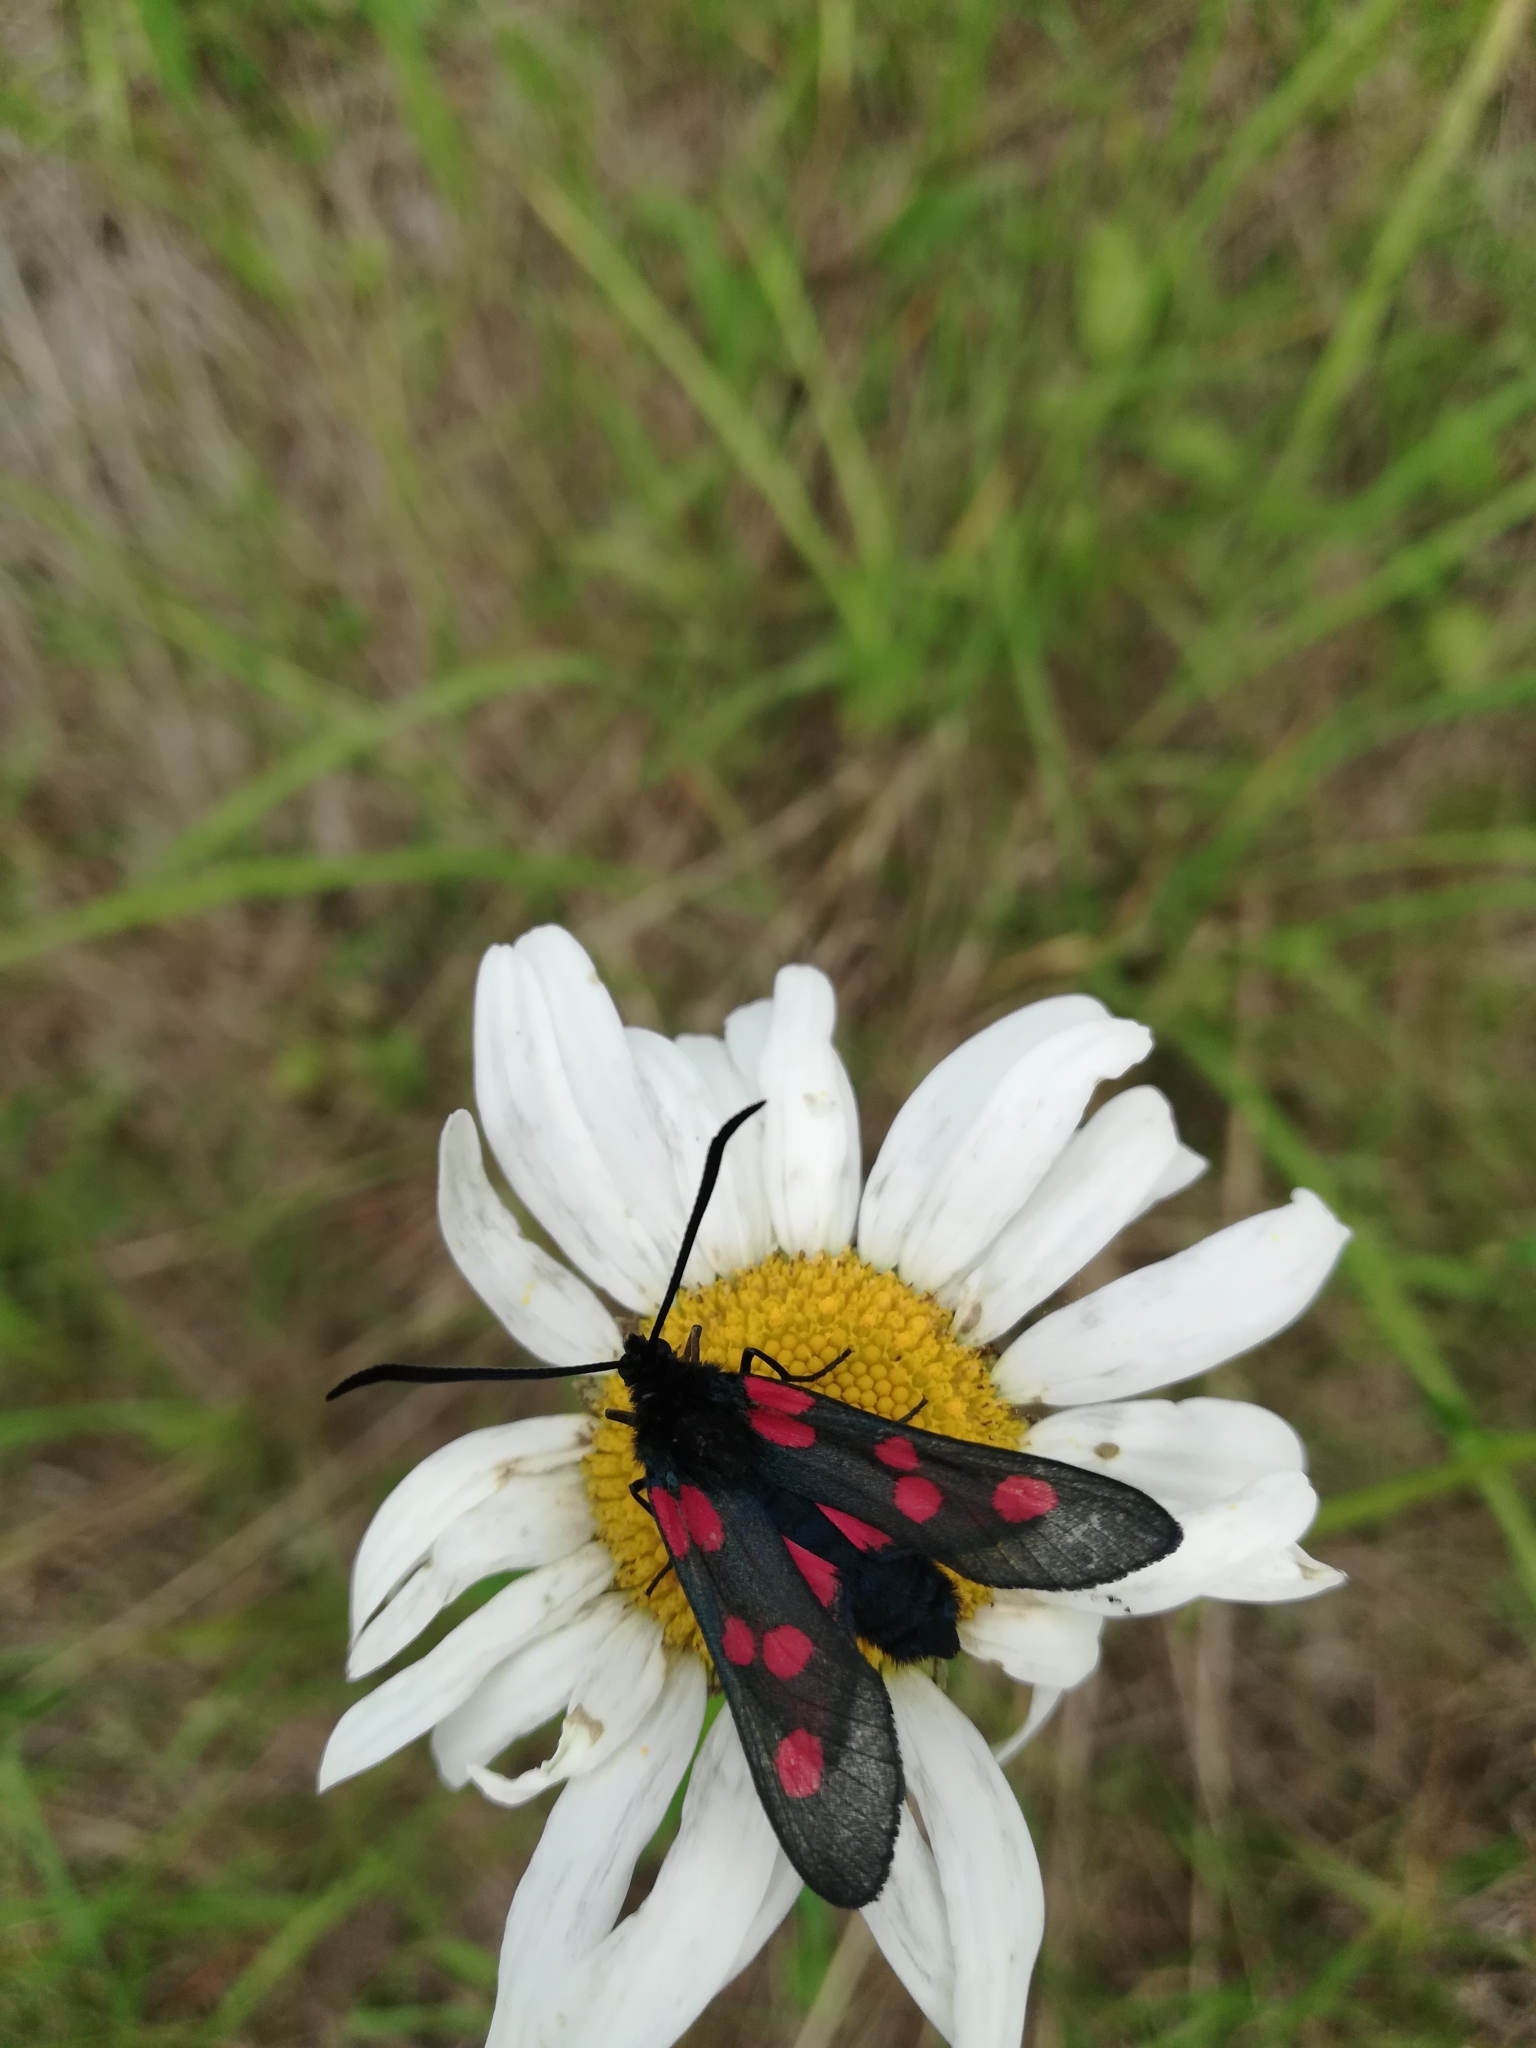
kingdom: Animalia
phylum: Arthropoda
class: Insecta
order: Lepidoptera
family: Zygaenidae
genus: Zygaena
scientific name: Zygaena lonicerae
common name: Narrow-bordered five-spot burnet
